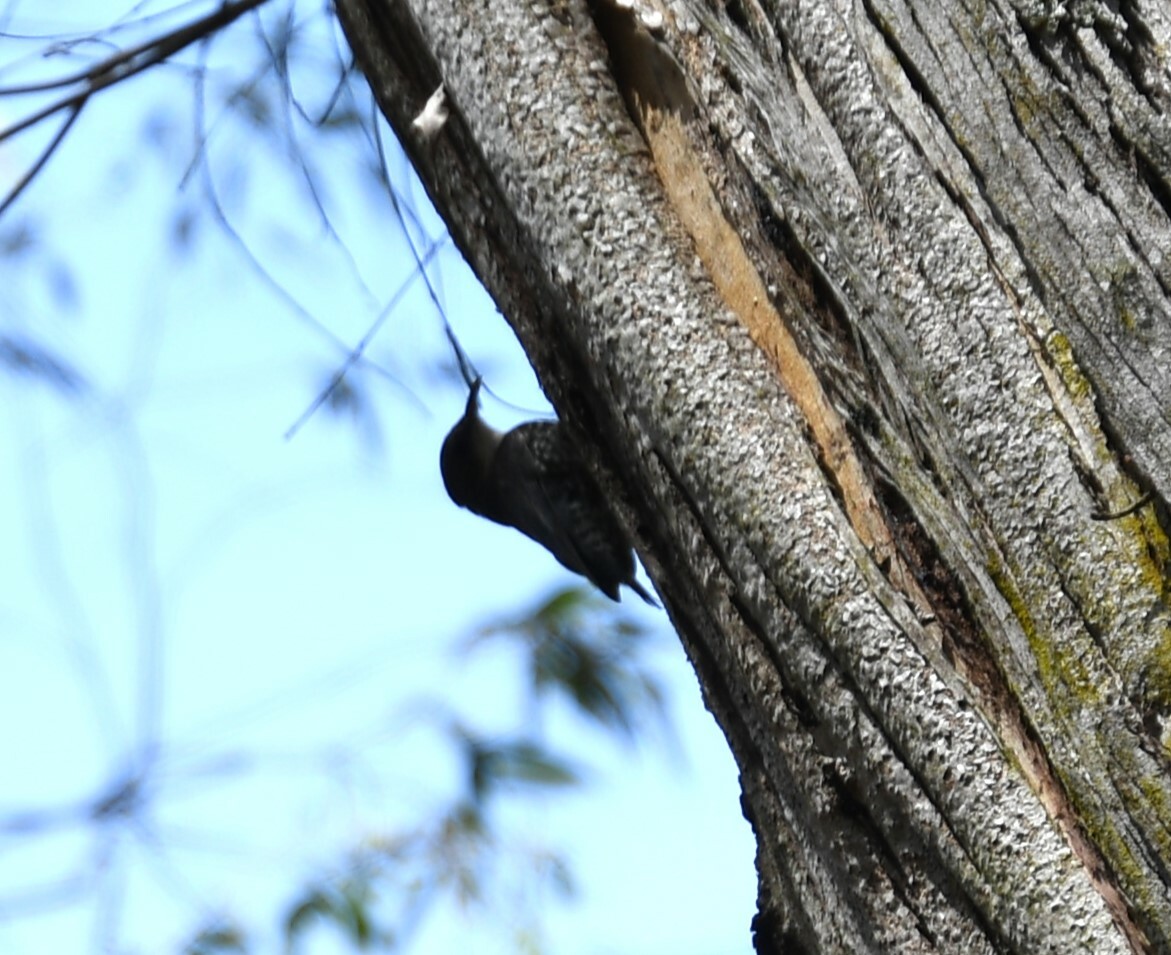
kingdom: Animalia
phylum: Chordata
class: Aves
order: Passeriformes
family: Climacteridae
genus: Cormobates
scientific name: Cormobates leucophaea
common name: White-throated treecreeper
